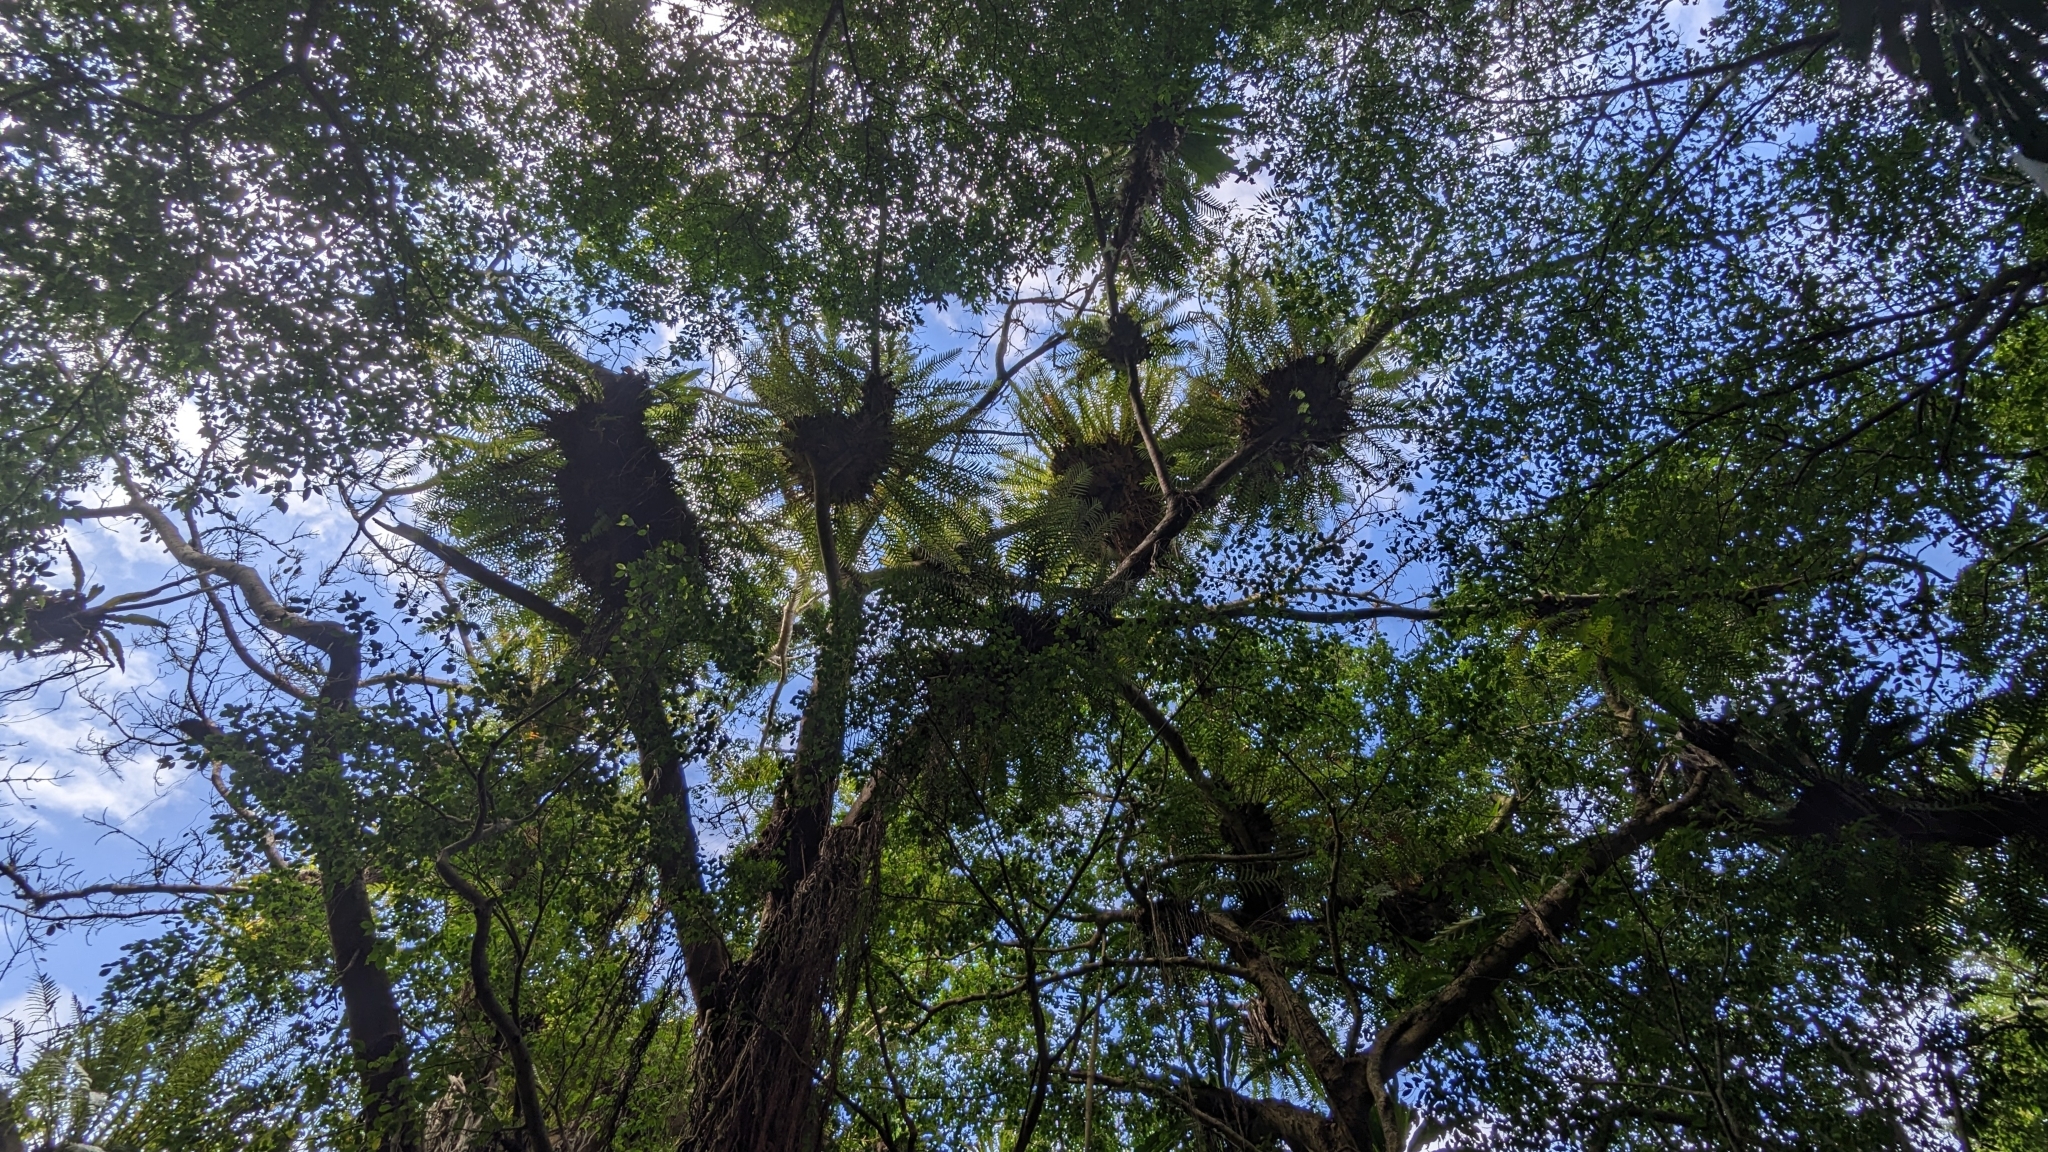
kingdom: Plantae
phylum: Tracheophyta
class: Polypodiopsida
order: Polypodiales
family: Polypodiaceae
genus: Drynaria
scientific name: Drynaria coronans
